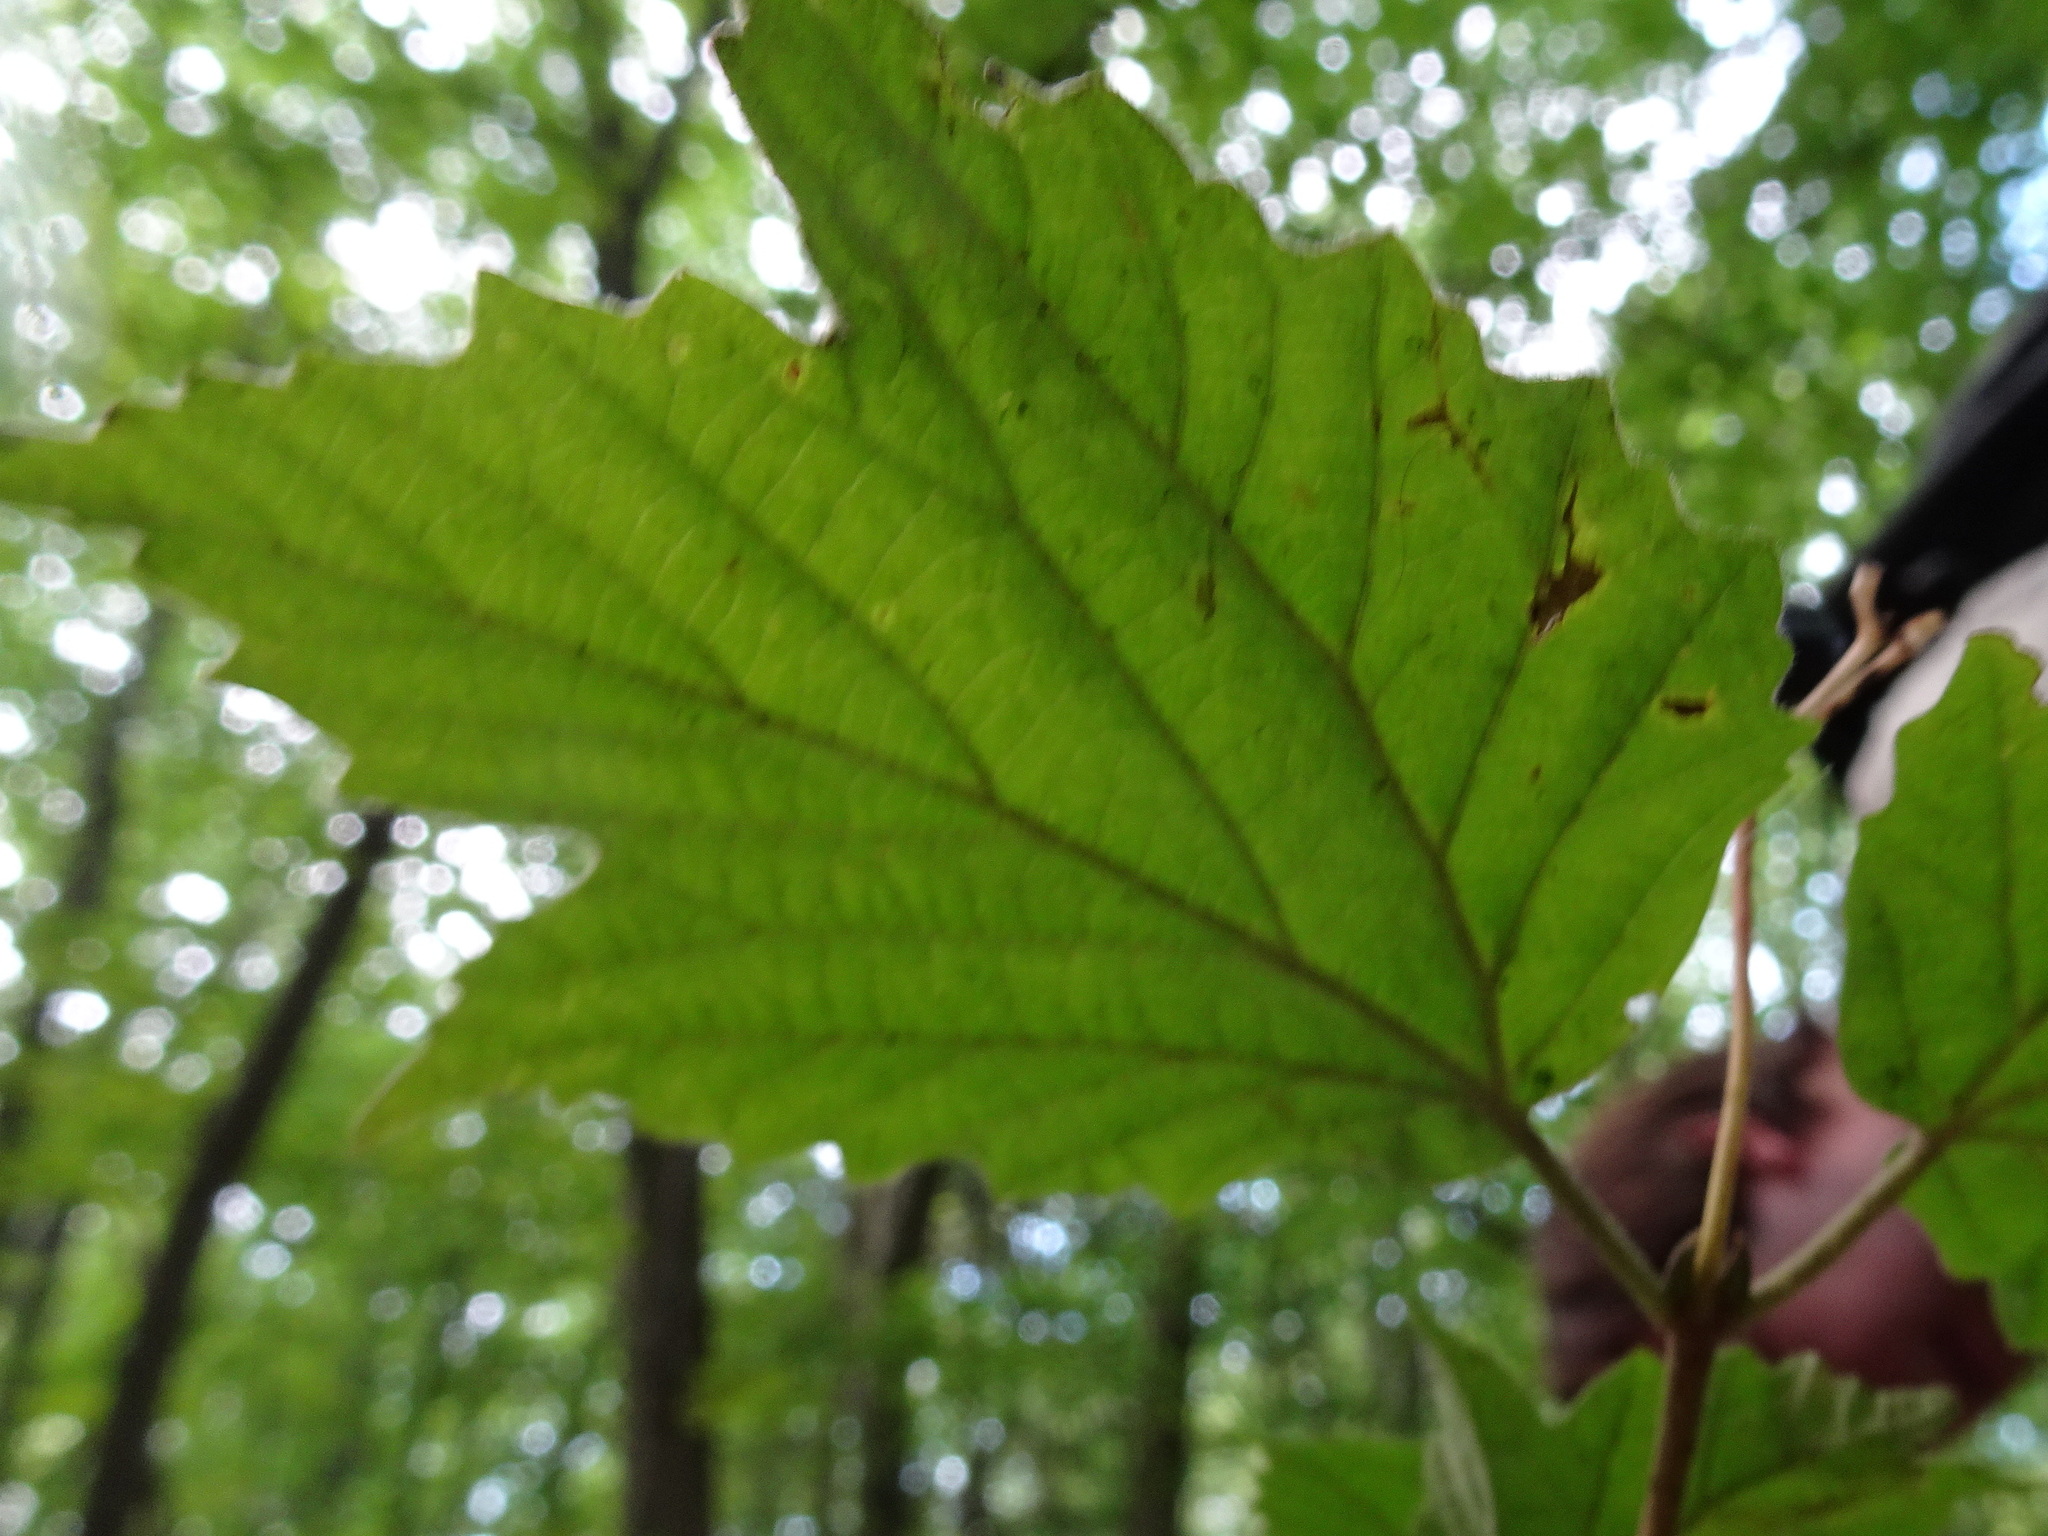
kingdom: Plantae
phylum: Tracheophyta
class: Magnoliopsida
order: Dipsacales
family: Viburnaceae
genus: Viburnum
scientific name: Viburnum acerifolium
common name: Dockmackie
